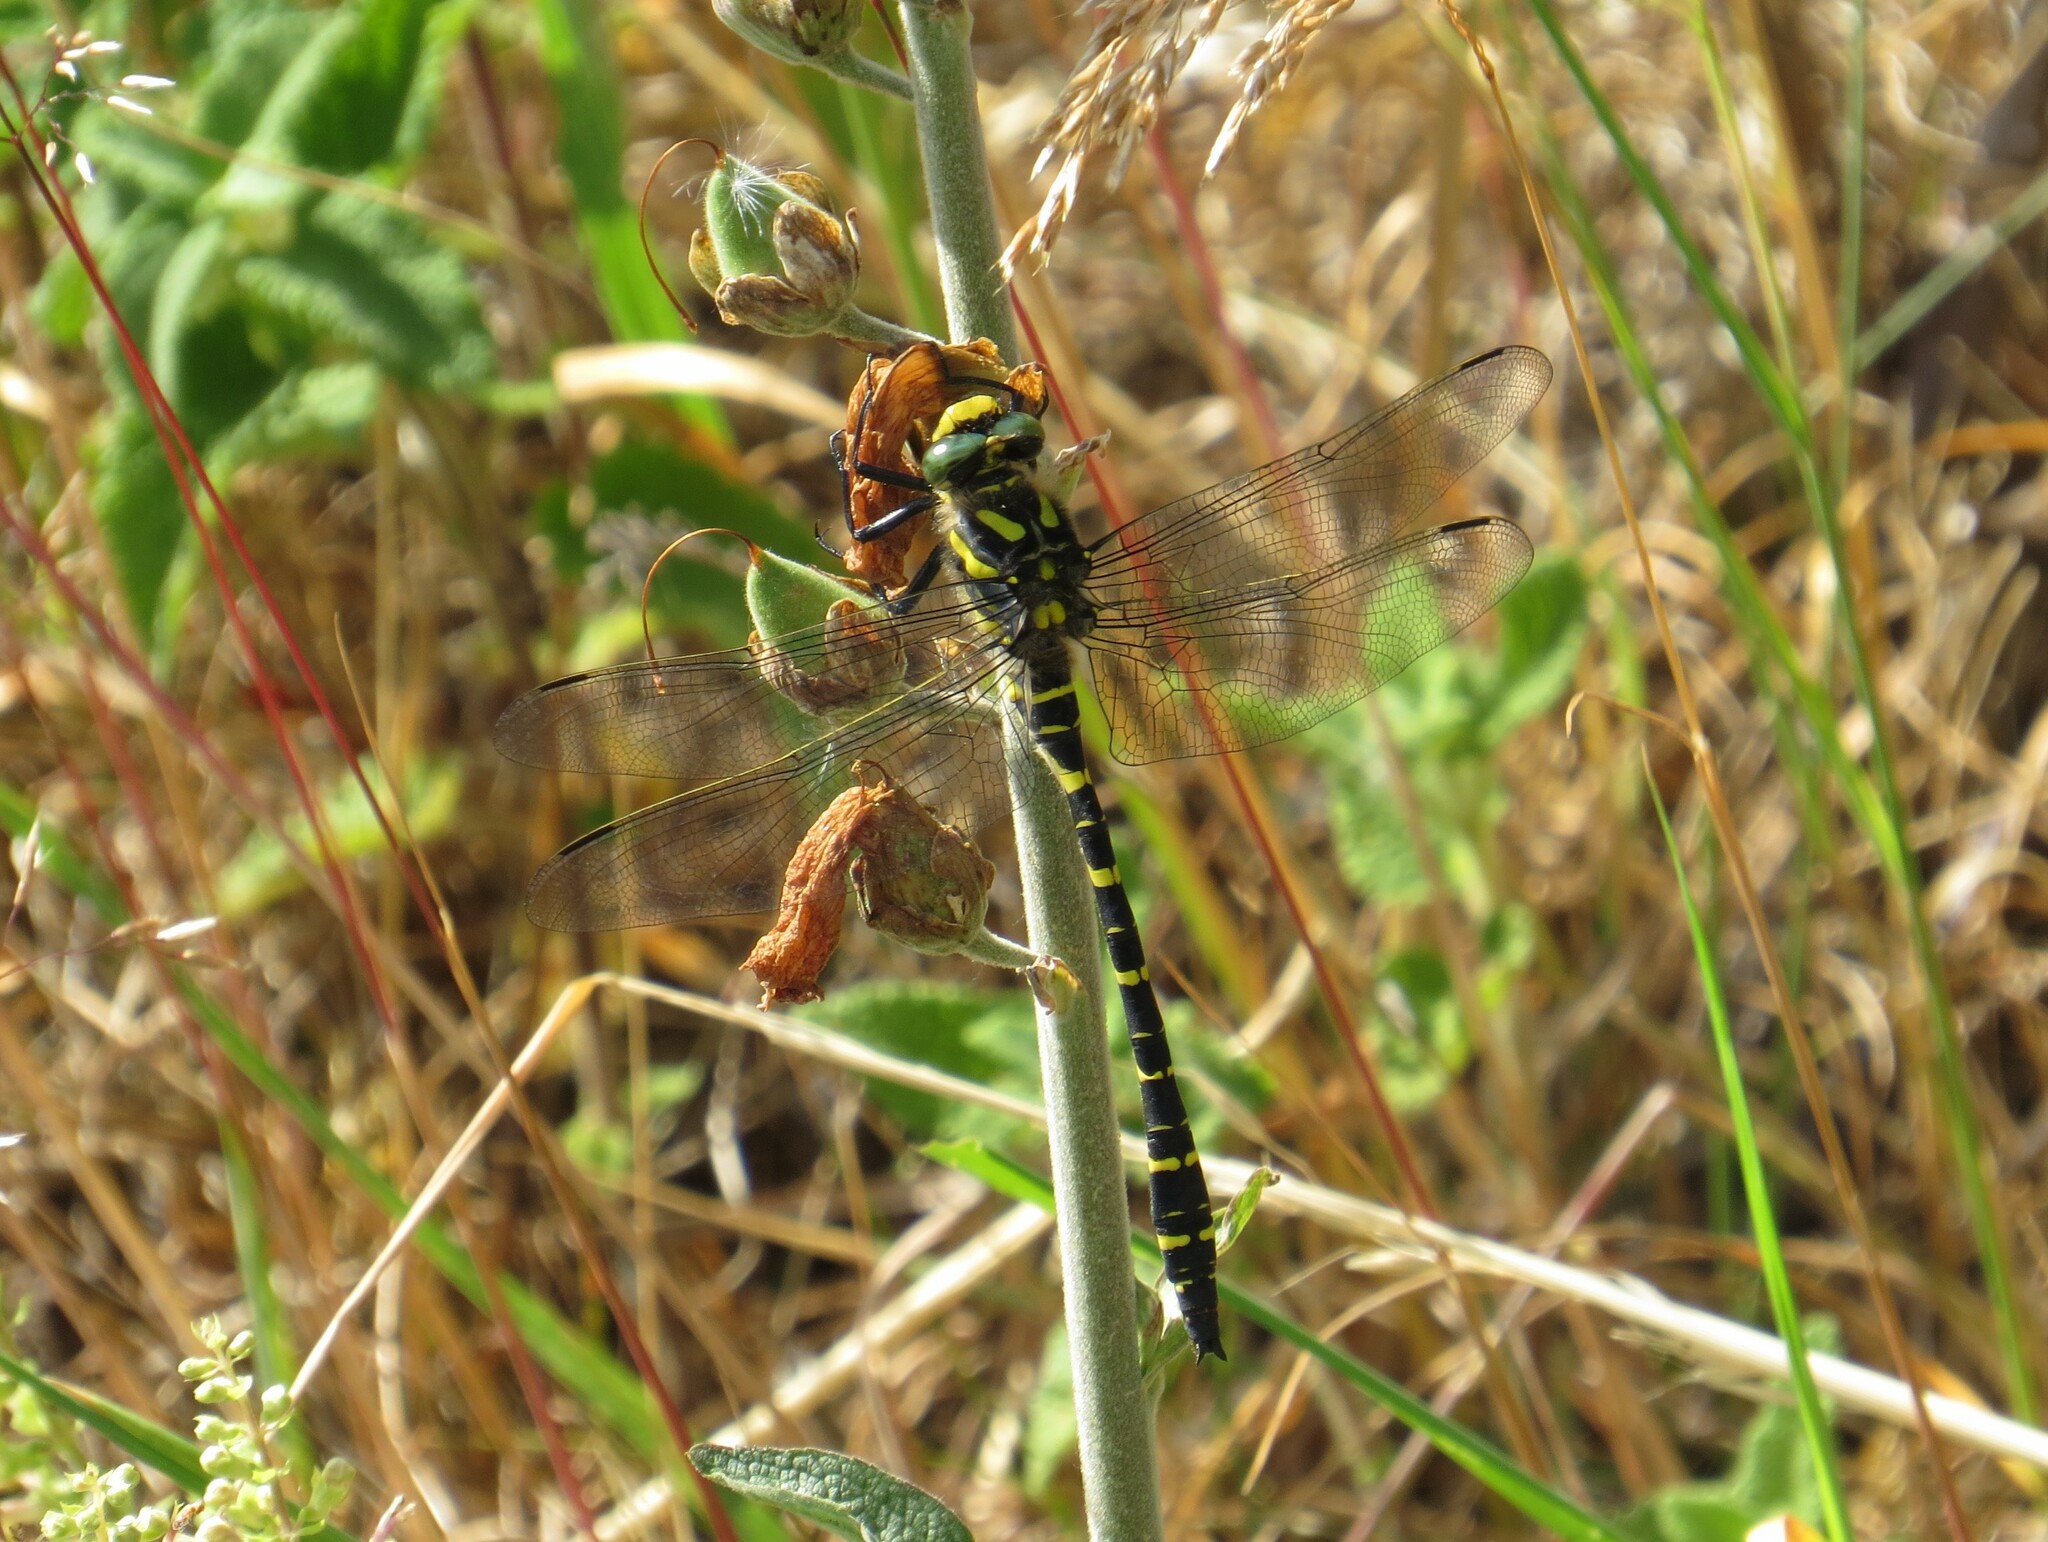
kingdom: Animalia
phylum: Arthropoda
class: Insecta
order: Odonata
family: Cordulegastridae
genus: Cordulegaster
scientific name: Cordulegaster boltonii
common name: Golden-ringed dragonfly
